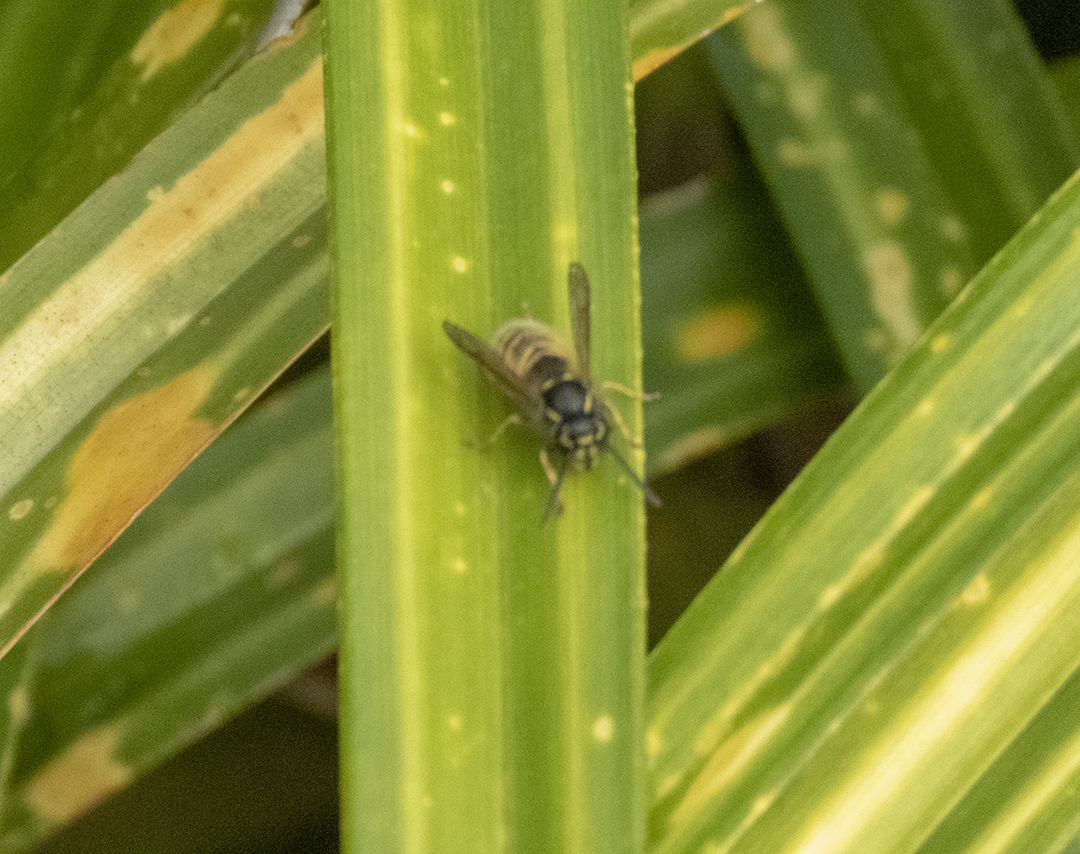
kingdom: Animalia
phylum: Arthropoda
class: Insecta
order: Hymenoptera
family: Vespidae
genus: Vespula
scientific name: Vespula vulgaris
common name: Common wasp
